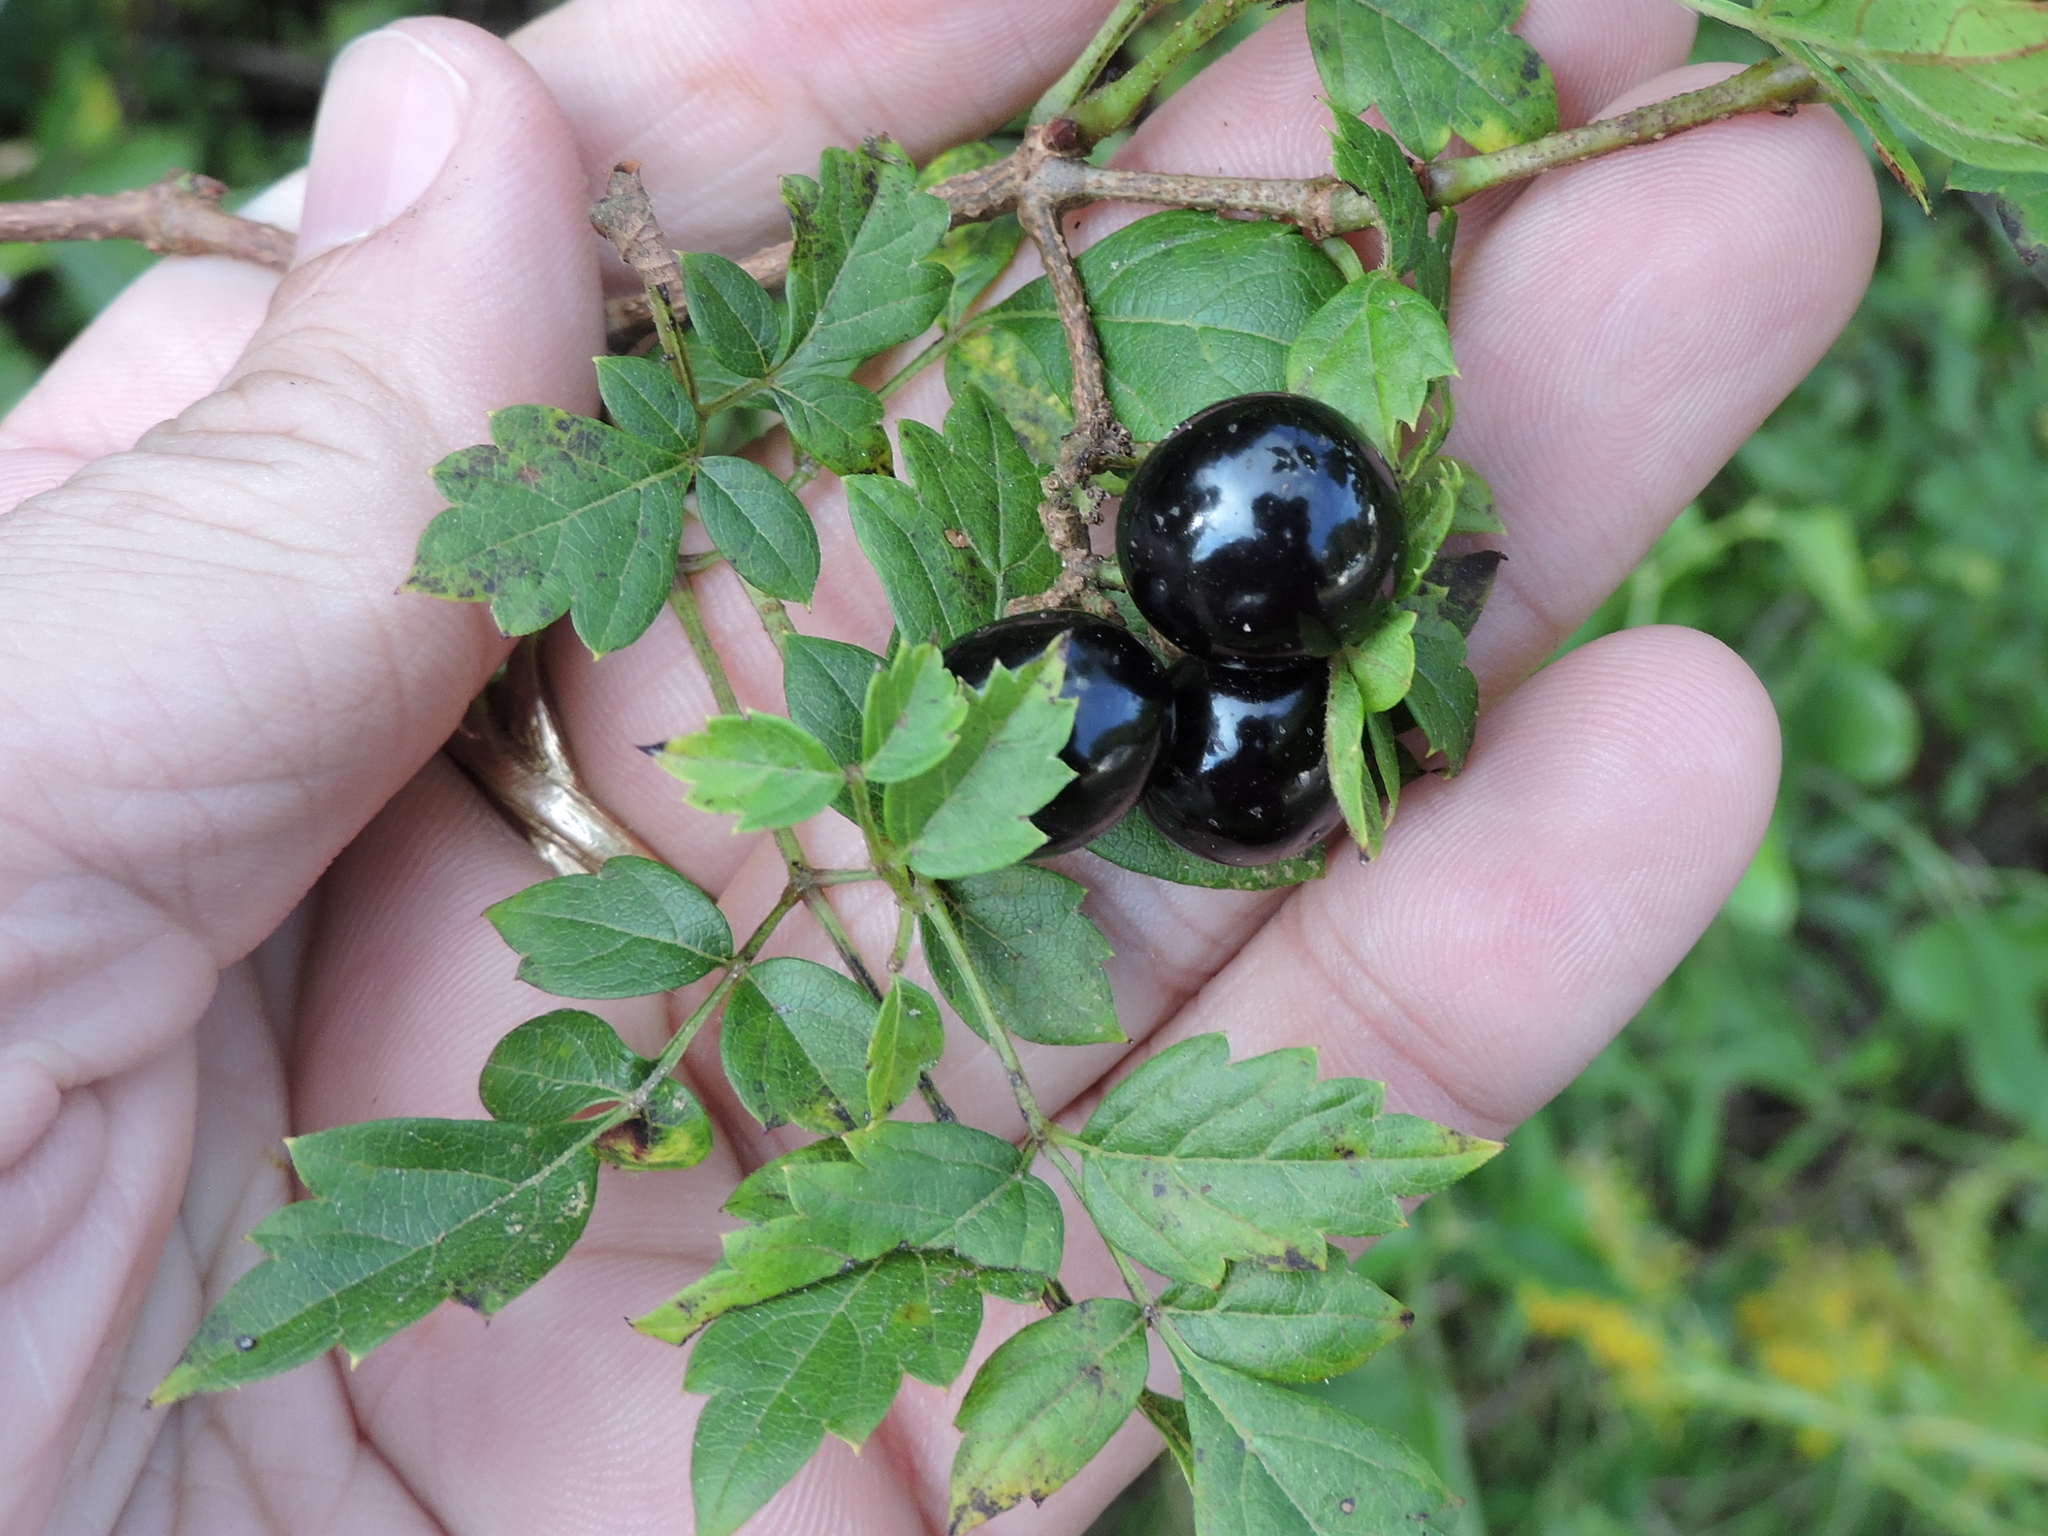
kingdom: Plantae
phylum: Tracheophyta
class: Magnoliopsida
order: Vitales
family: Vitaceae
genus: Nekemias
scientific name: Nekemias arborea
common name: Peppervine
